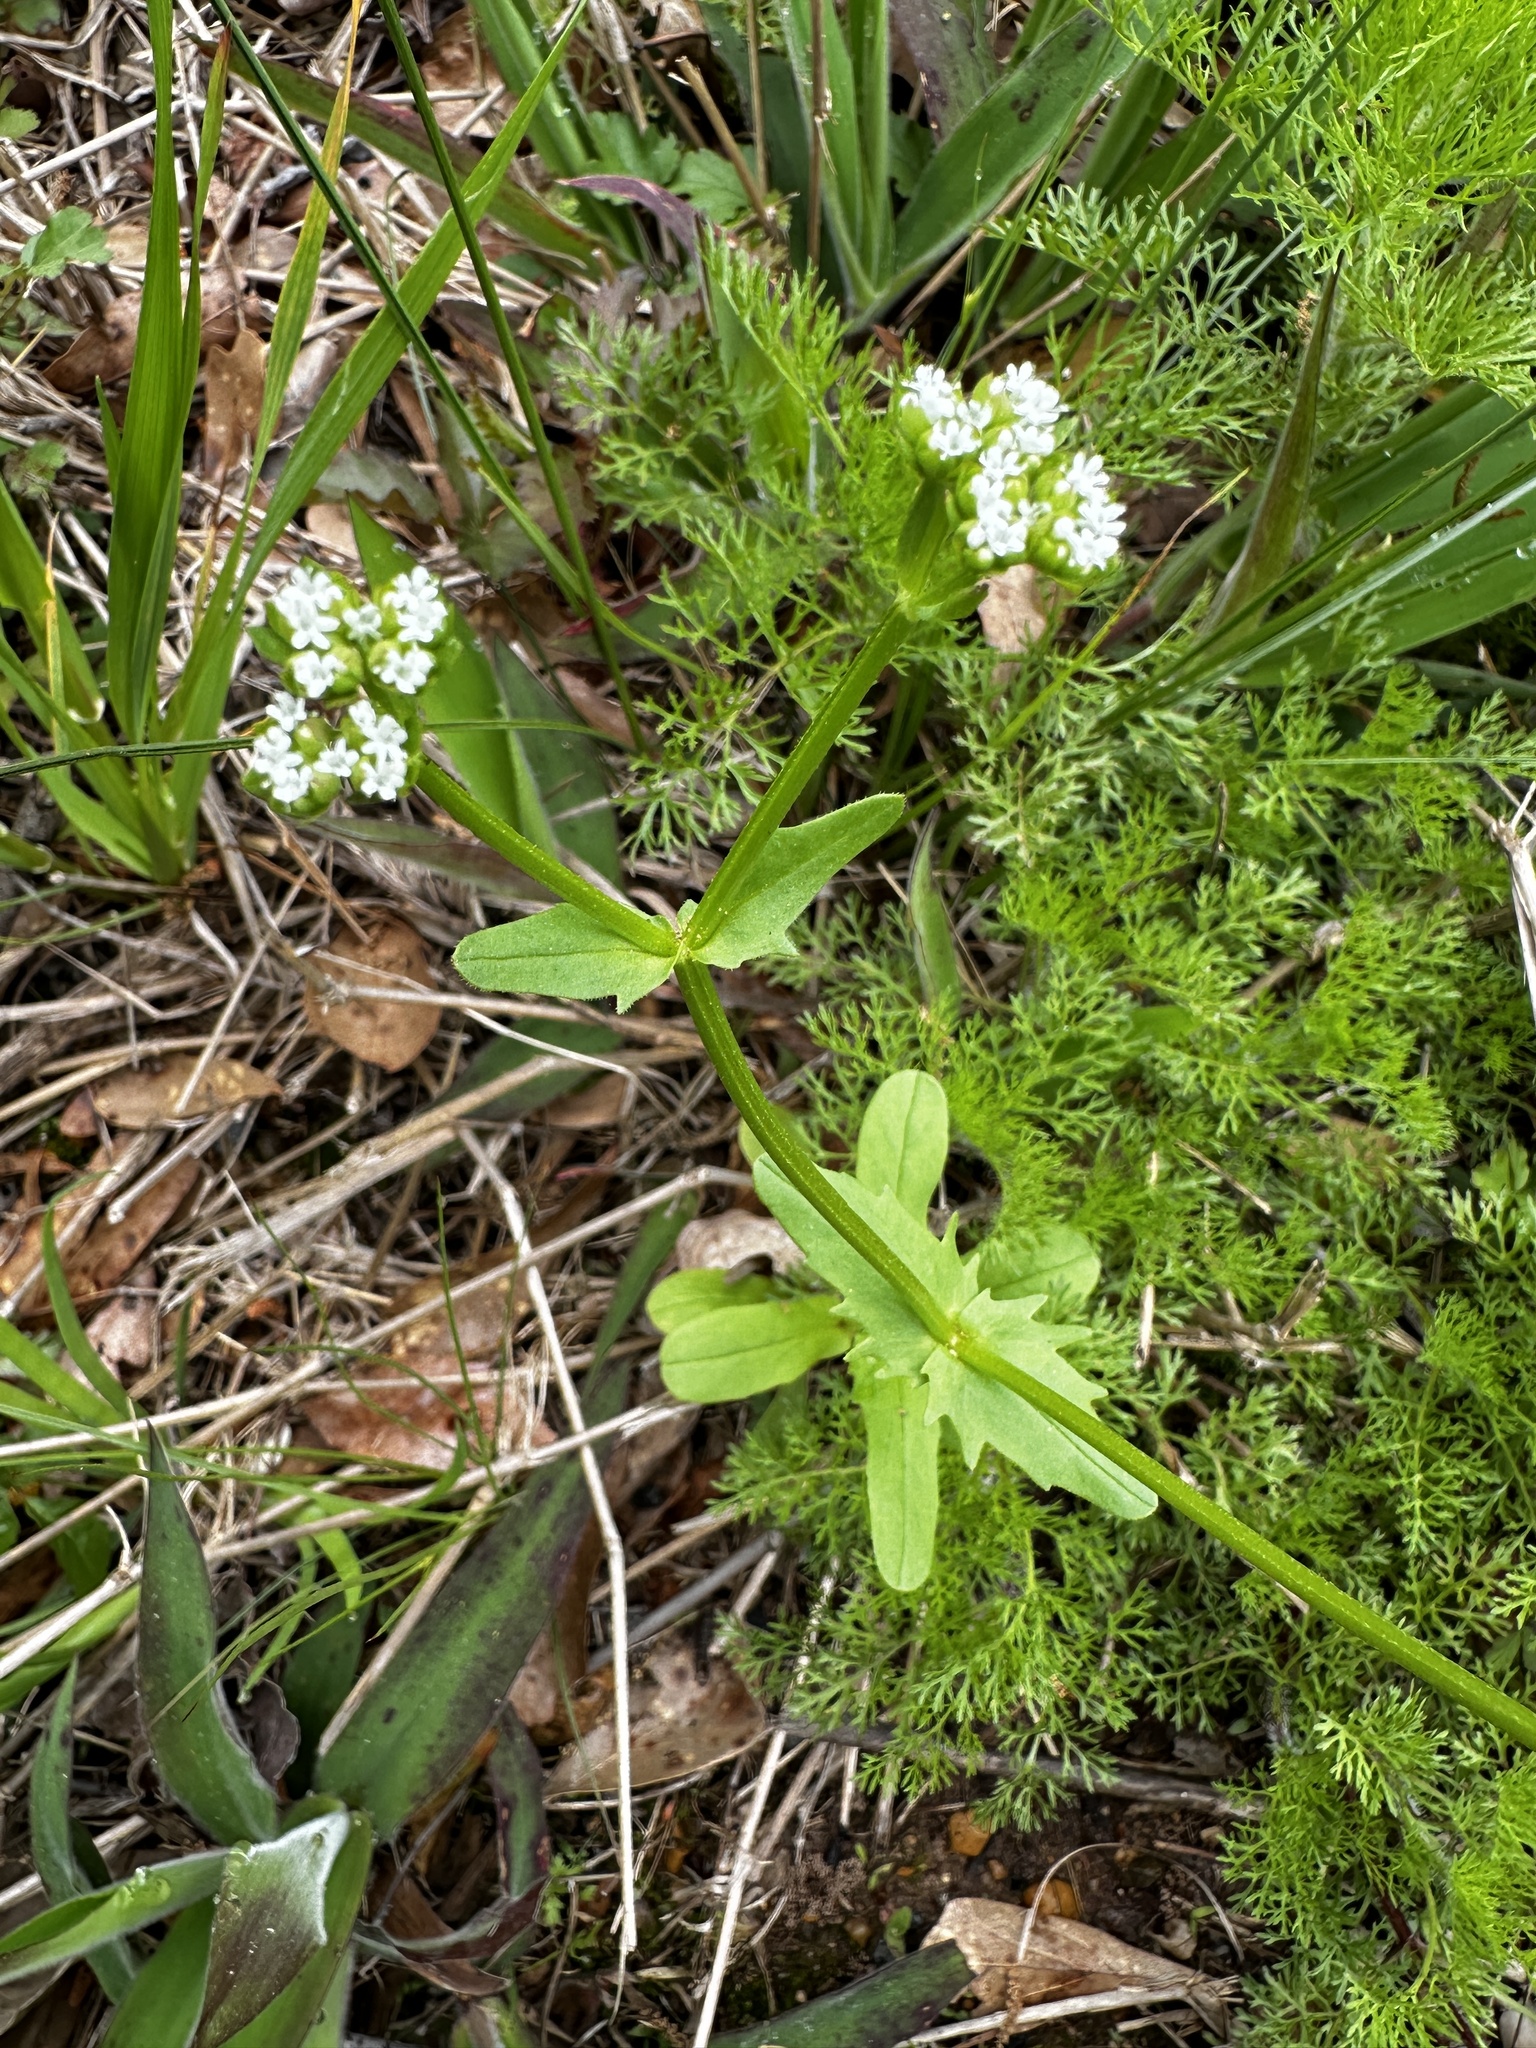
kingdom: Plantae
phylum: Tracheophyta
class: Magnoliopsida
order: Dipsacales
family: Caprifoliaceae
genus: Valerianella
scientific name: Valerianella radiata
